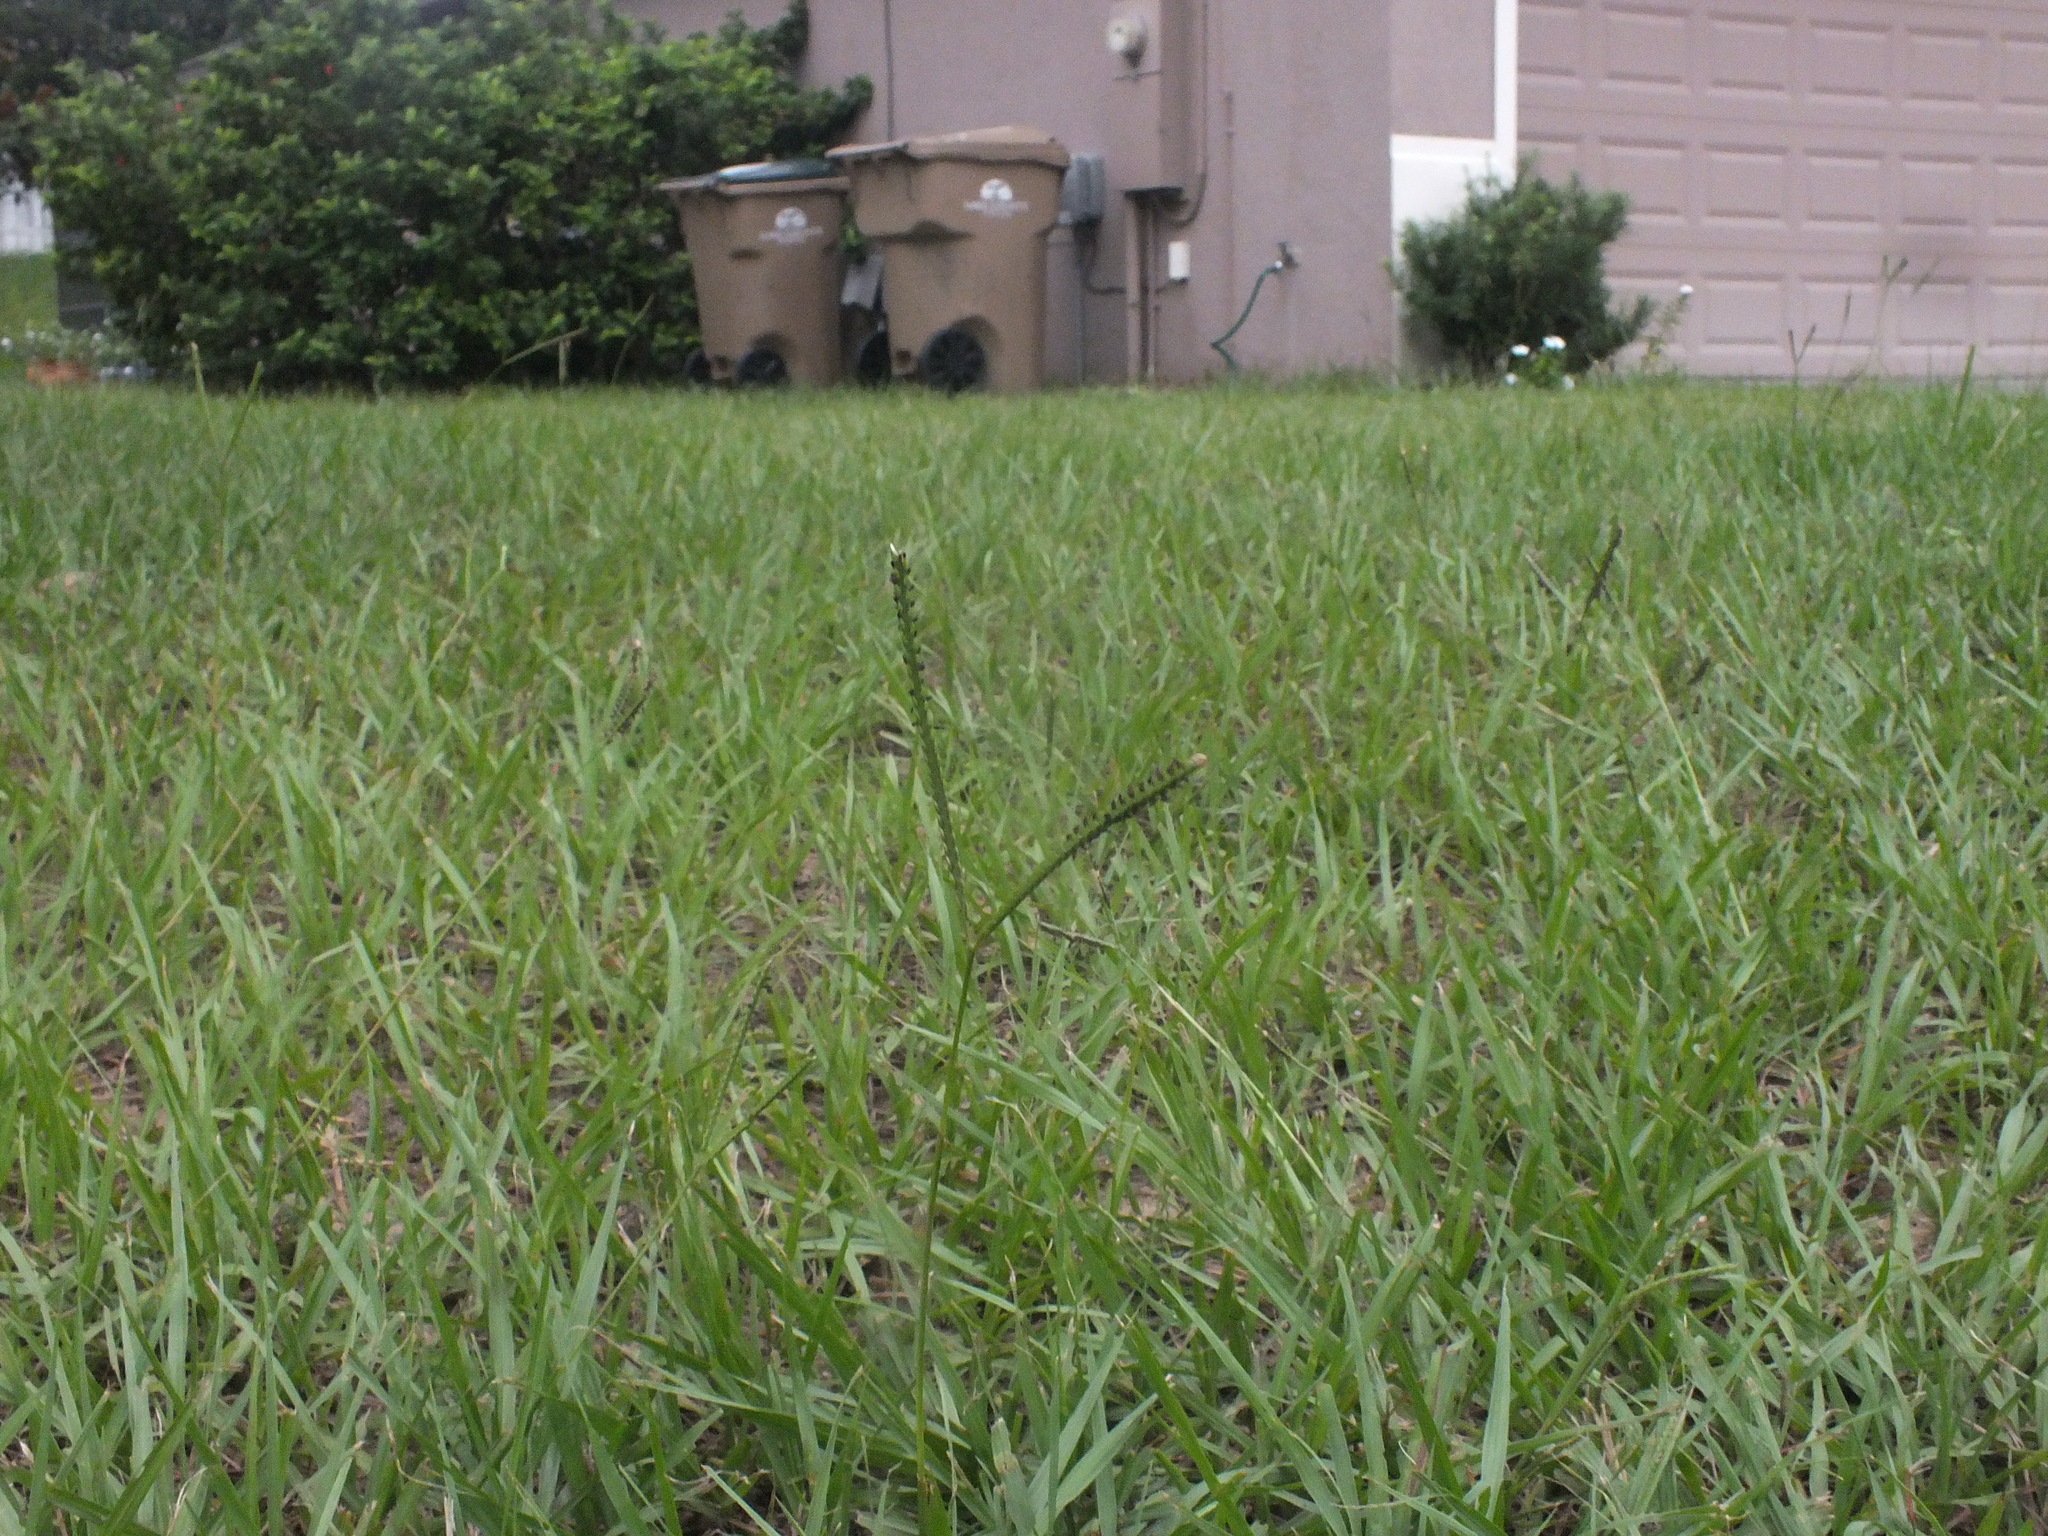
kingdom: Plantae
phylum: Tracheophyta
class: Liliopsida
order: Poales
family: Poaceae
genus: Paspalum
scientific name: Paspalum notatum
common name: Bahiagrass
